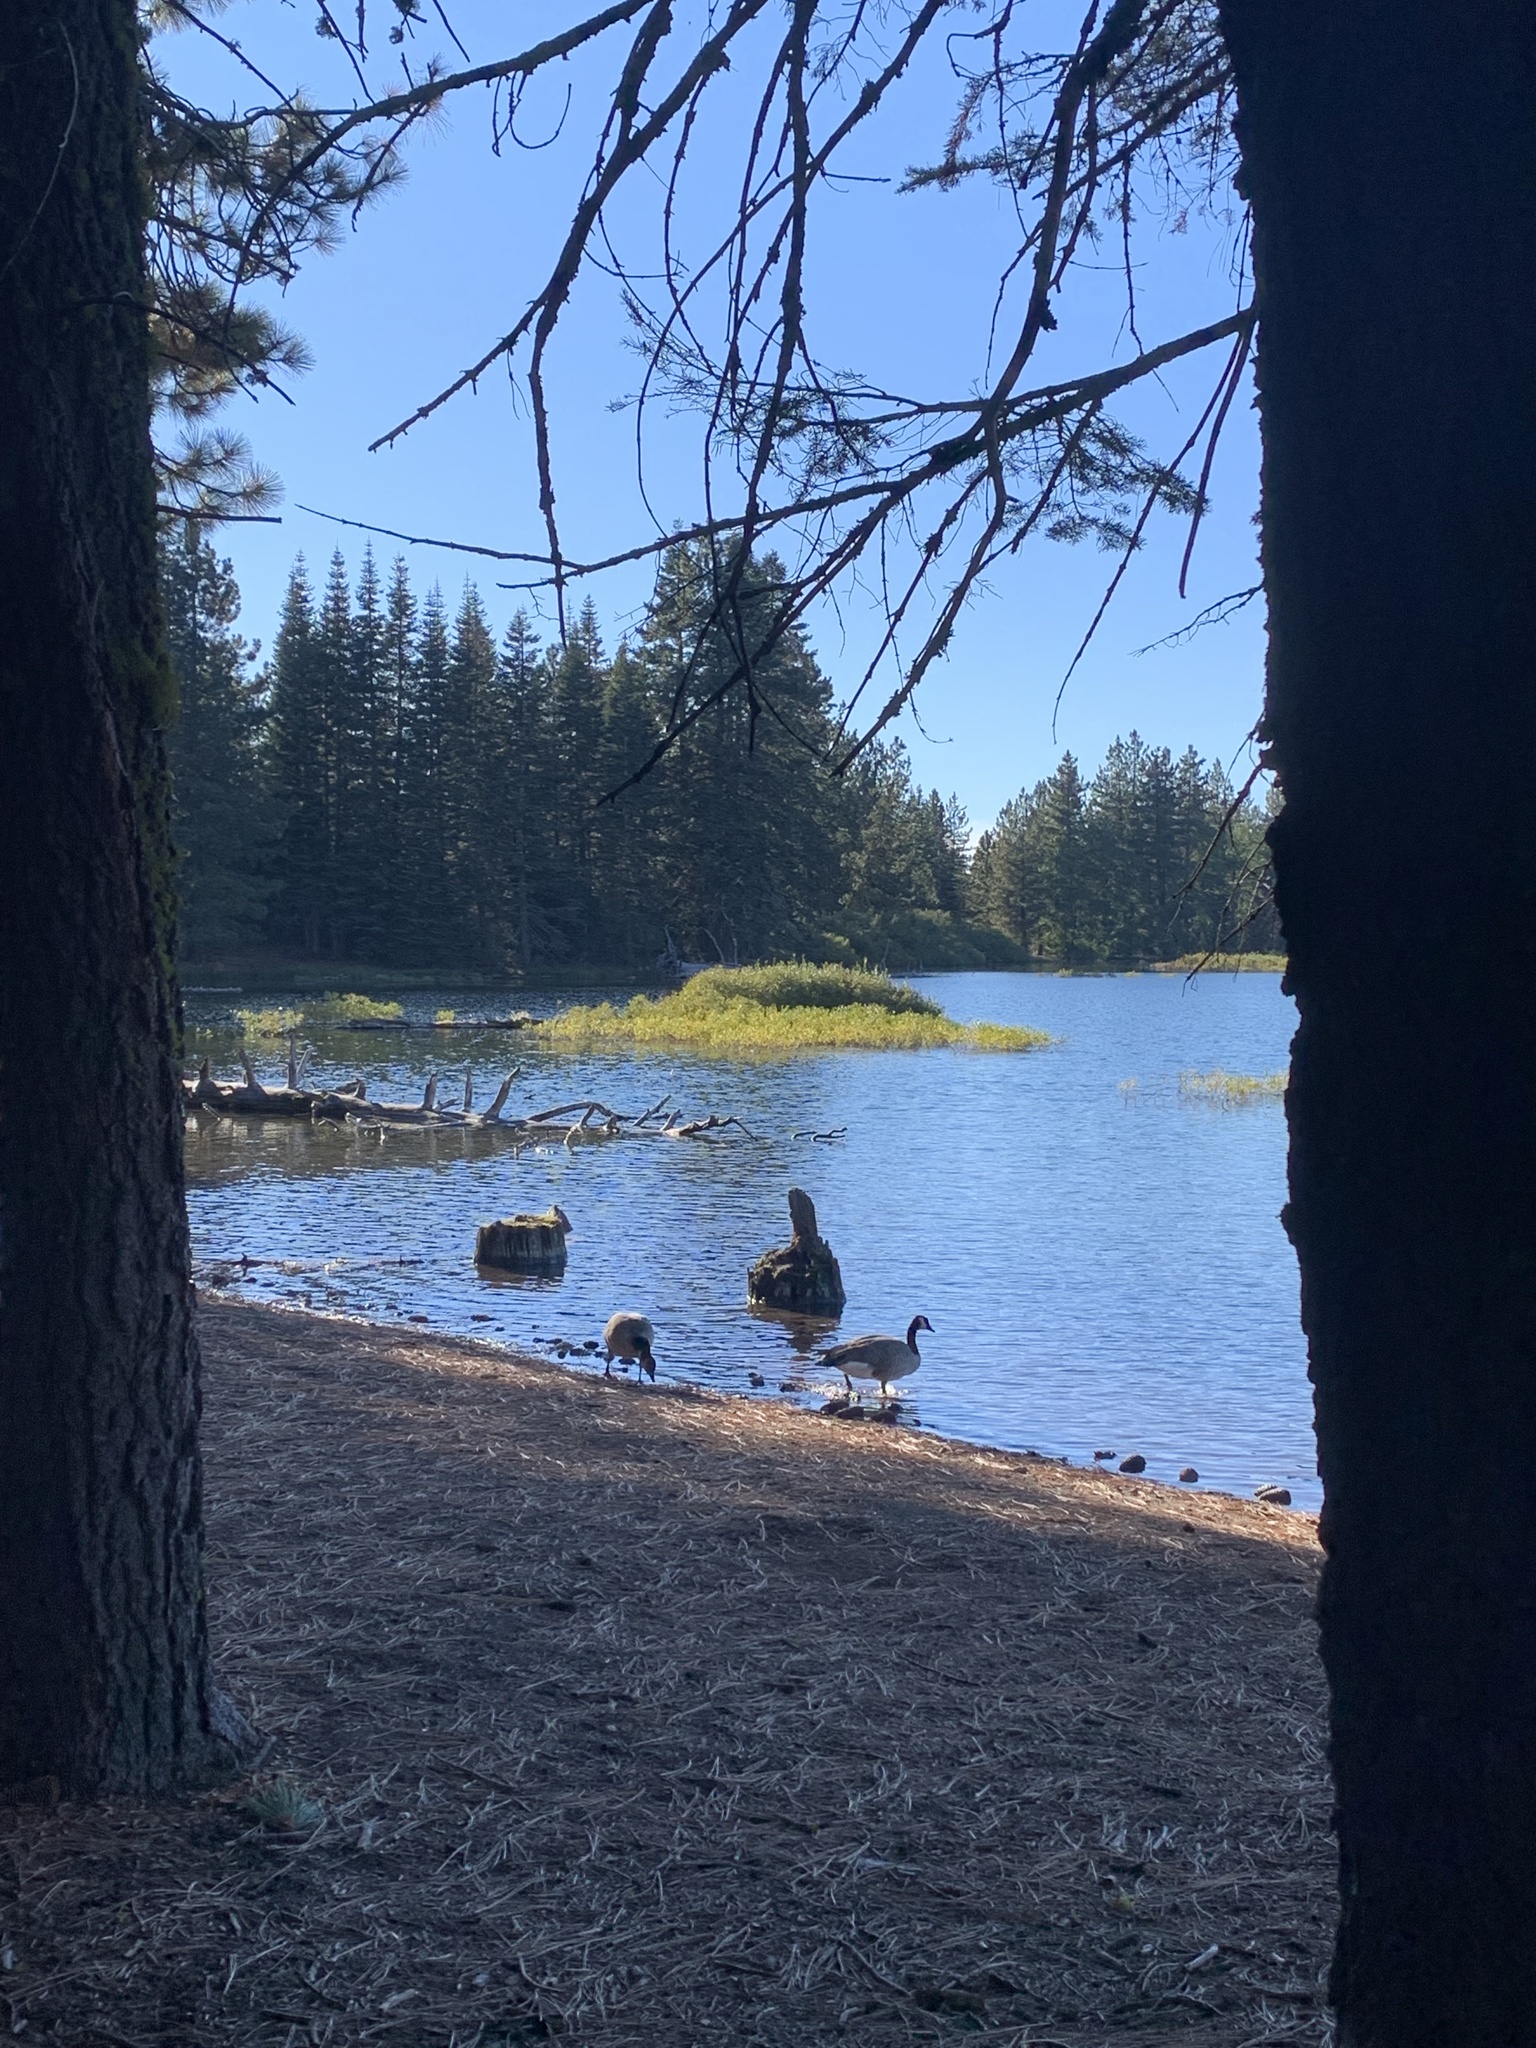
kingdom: Animalia
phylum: Chordata
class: Aves
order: Anseriformes
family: Anatidae
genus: Branta
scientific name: Branta canadensis
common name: Canada goose
